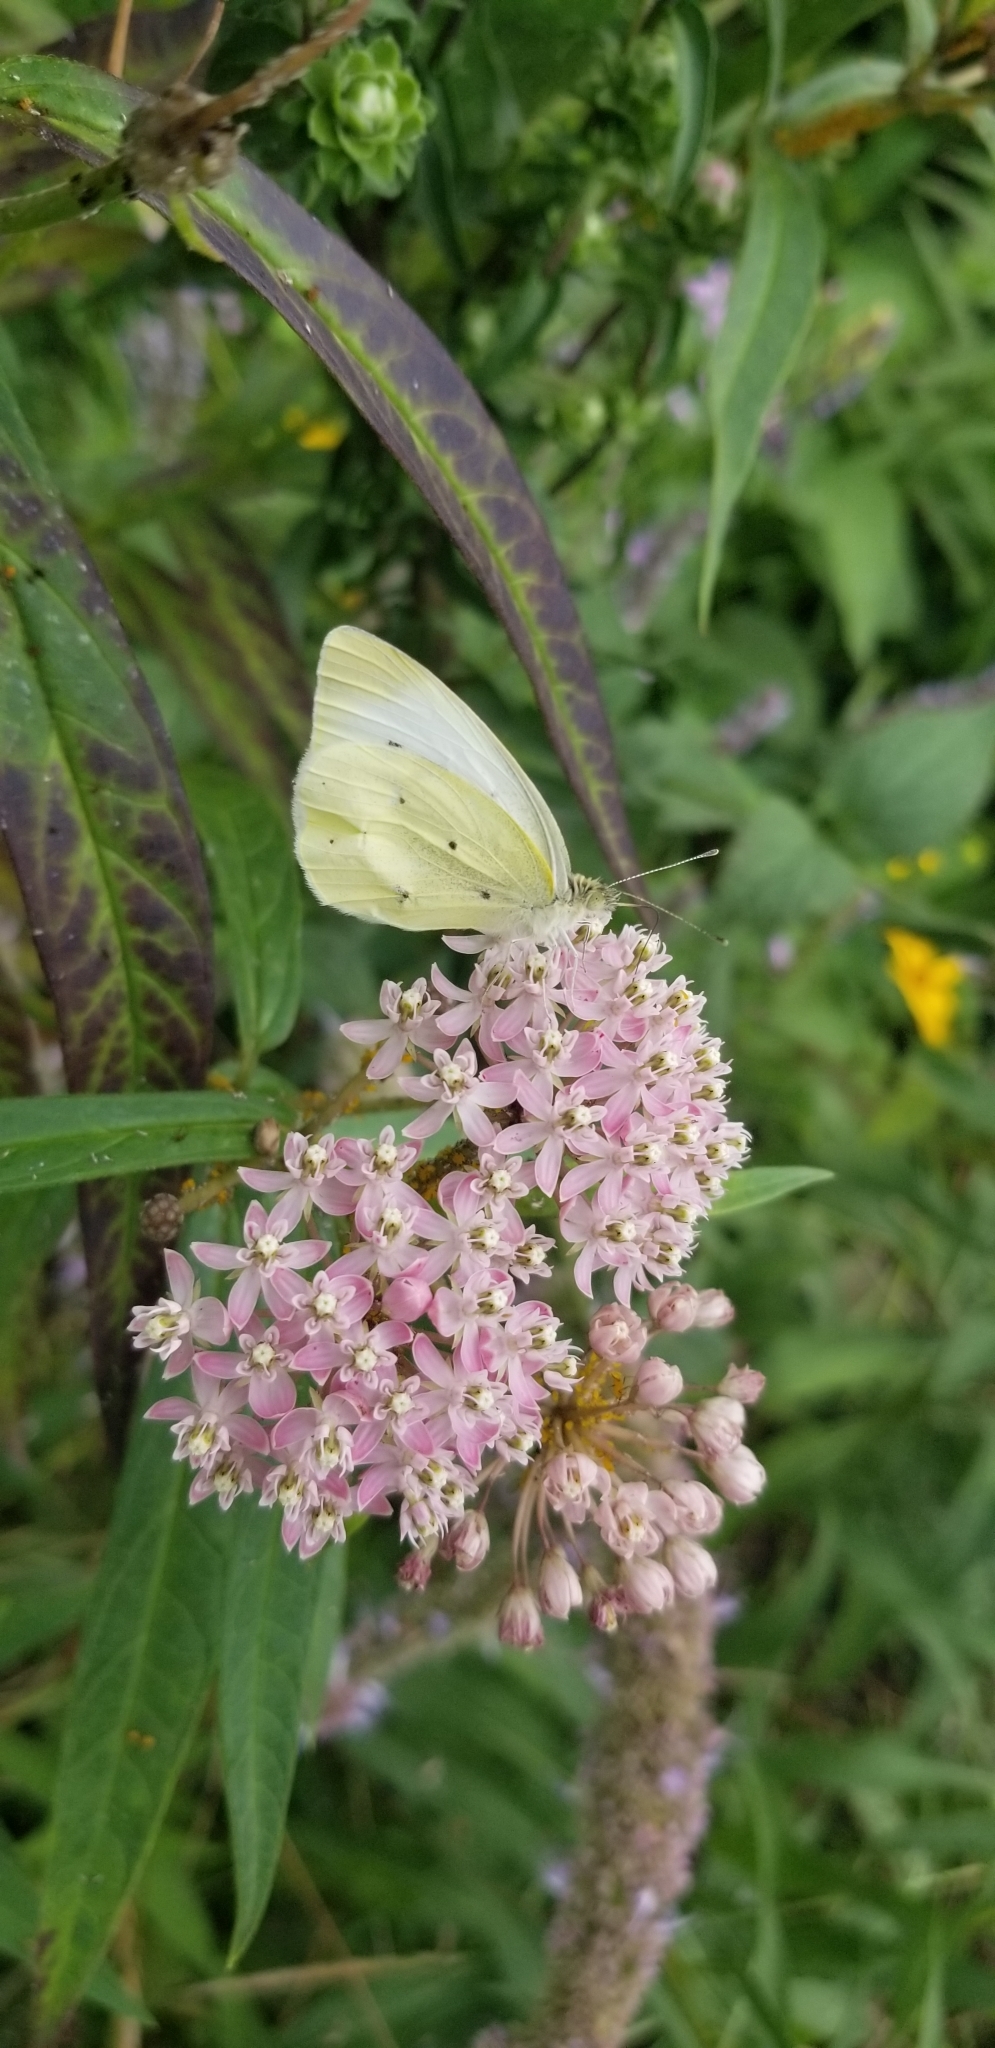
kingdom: Animalia
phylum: Arthropoda
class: Insecta
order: Lepidoptera
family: Pieridae
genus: Pieris
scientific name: Pieris rapae
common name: Small white
